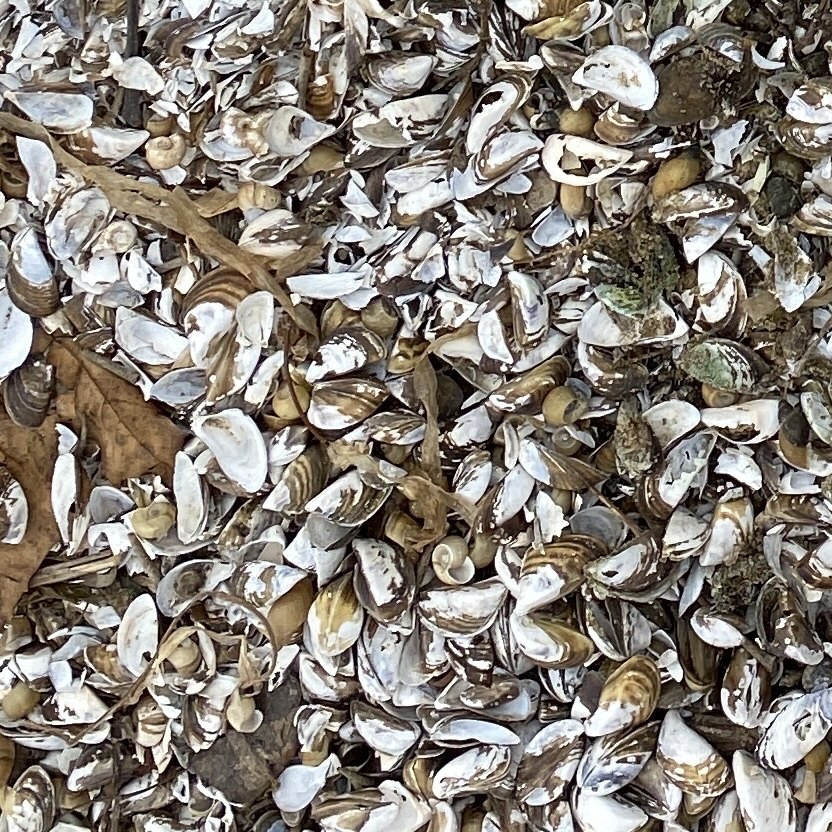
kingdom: Animalia
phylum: Mollusca
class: Bivalvia
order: Myida
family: Dreissenidae
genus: Dreissena
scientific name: Dreissena polymorpha
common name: Zebra mussel
